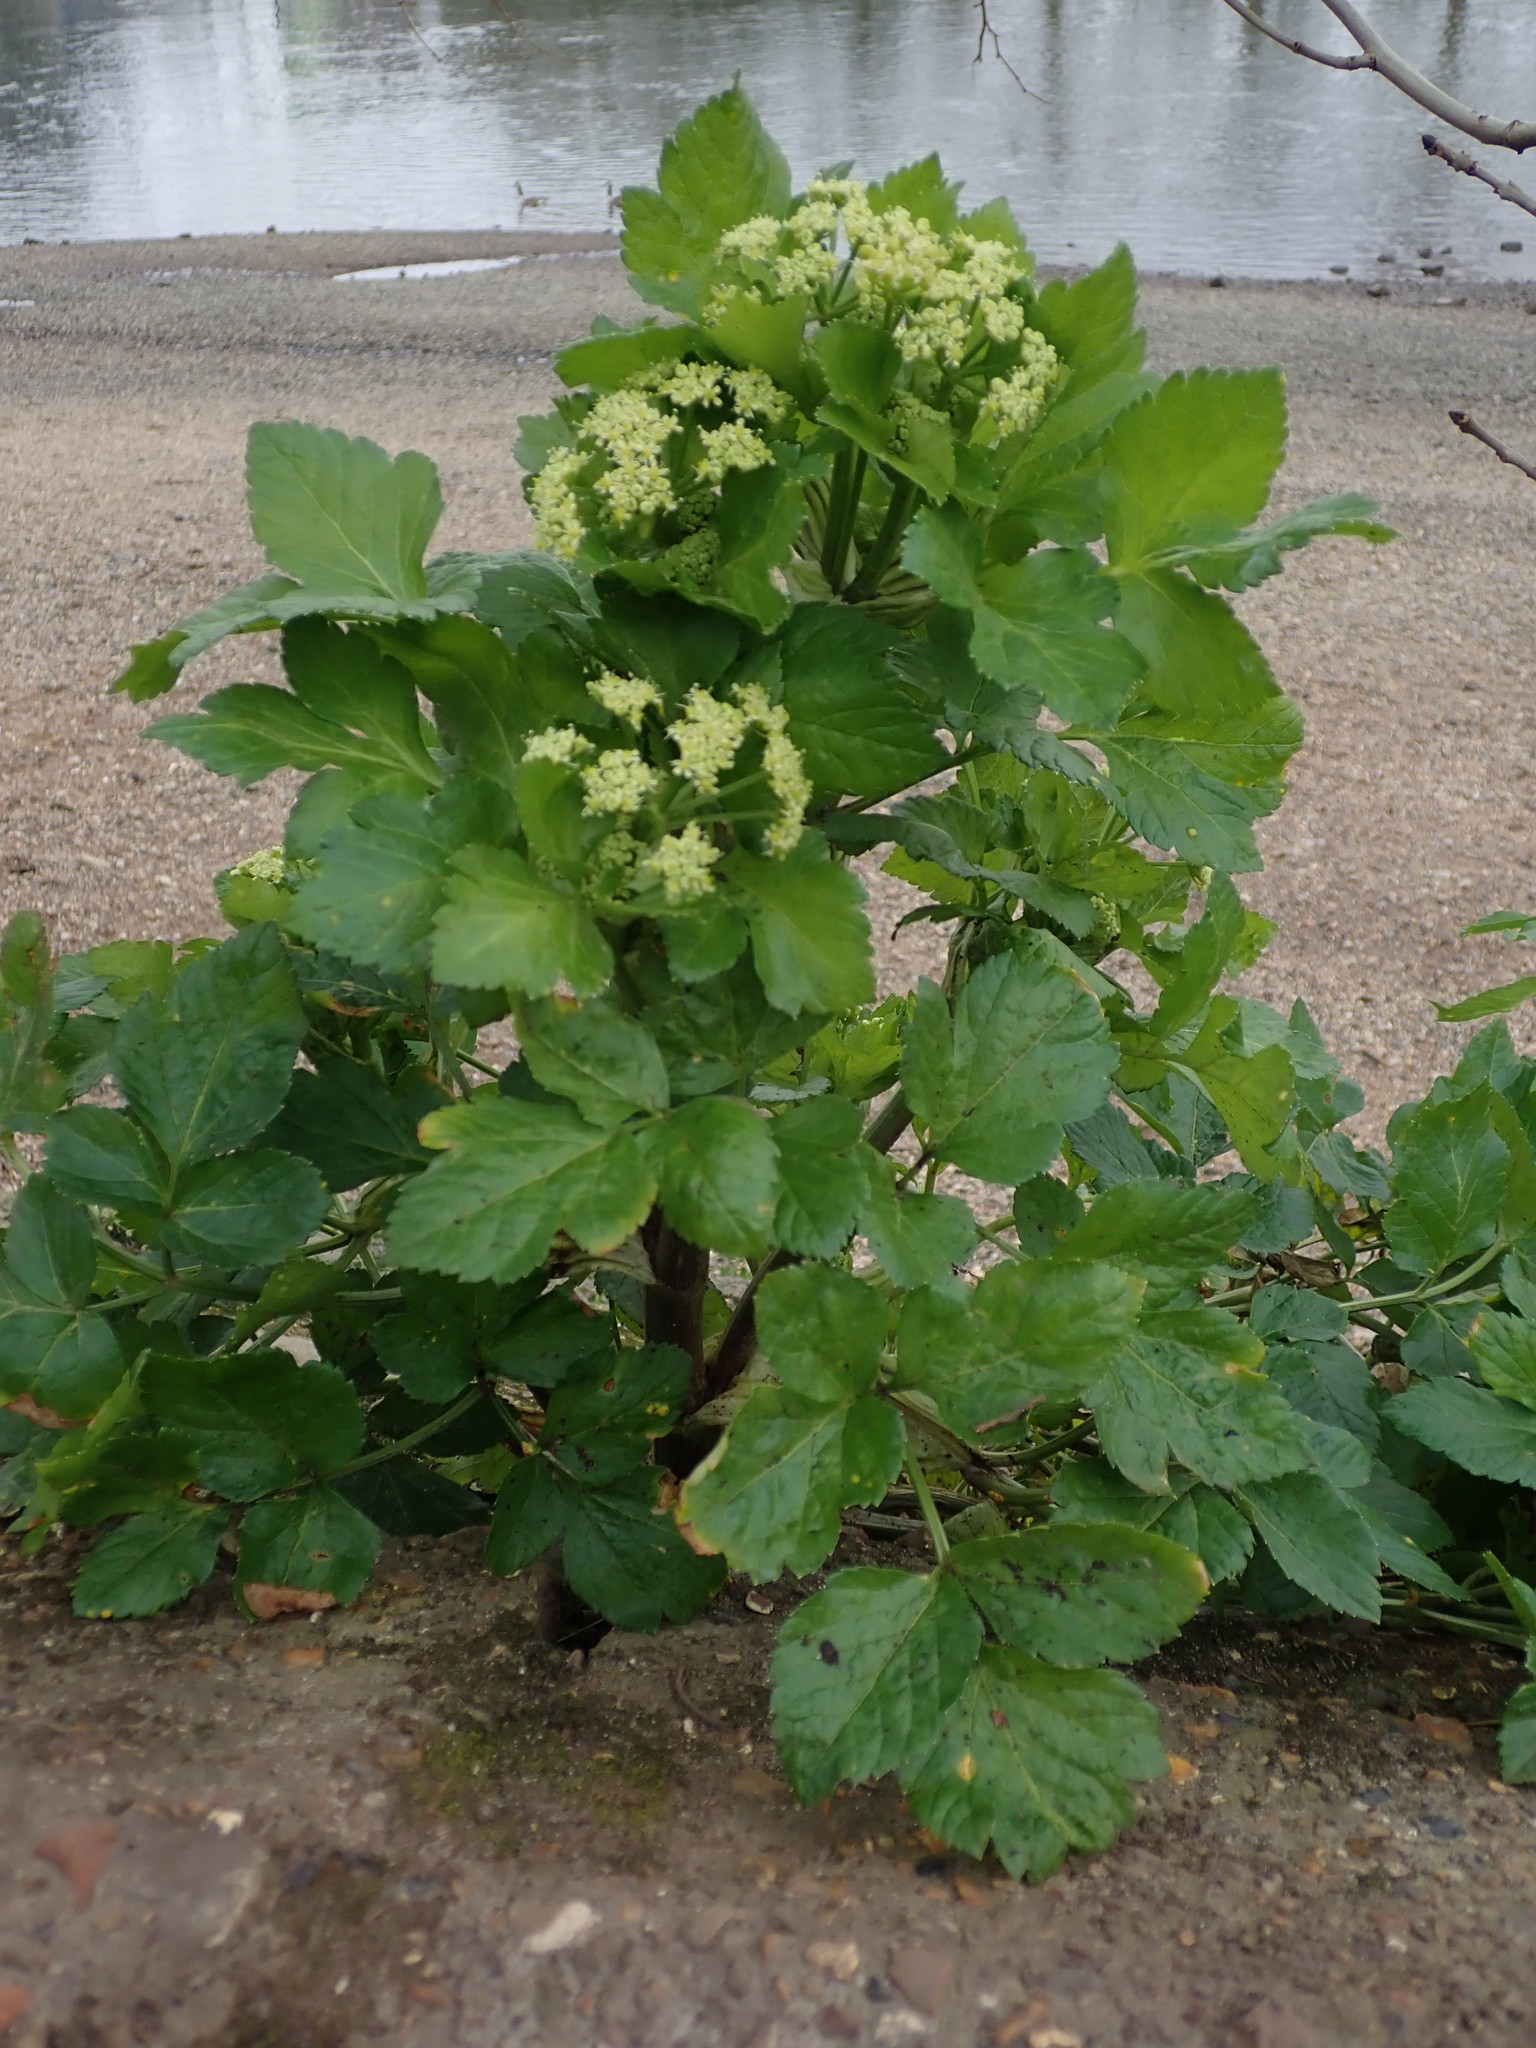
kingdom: Plantae
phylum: Tracheophyta
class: Magnoliopsida
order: Apiales
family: Apiaceae
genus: Smyrnium
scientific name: Smyrnium olusatrum
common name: Alexanders
